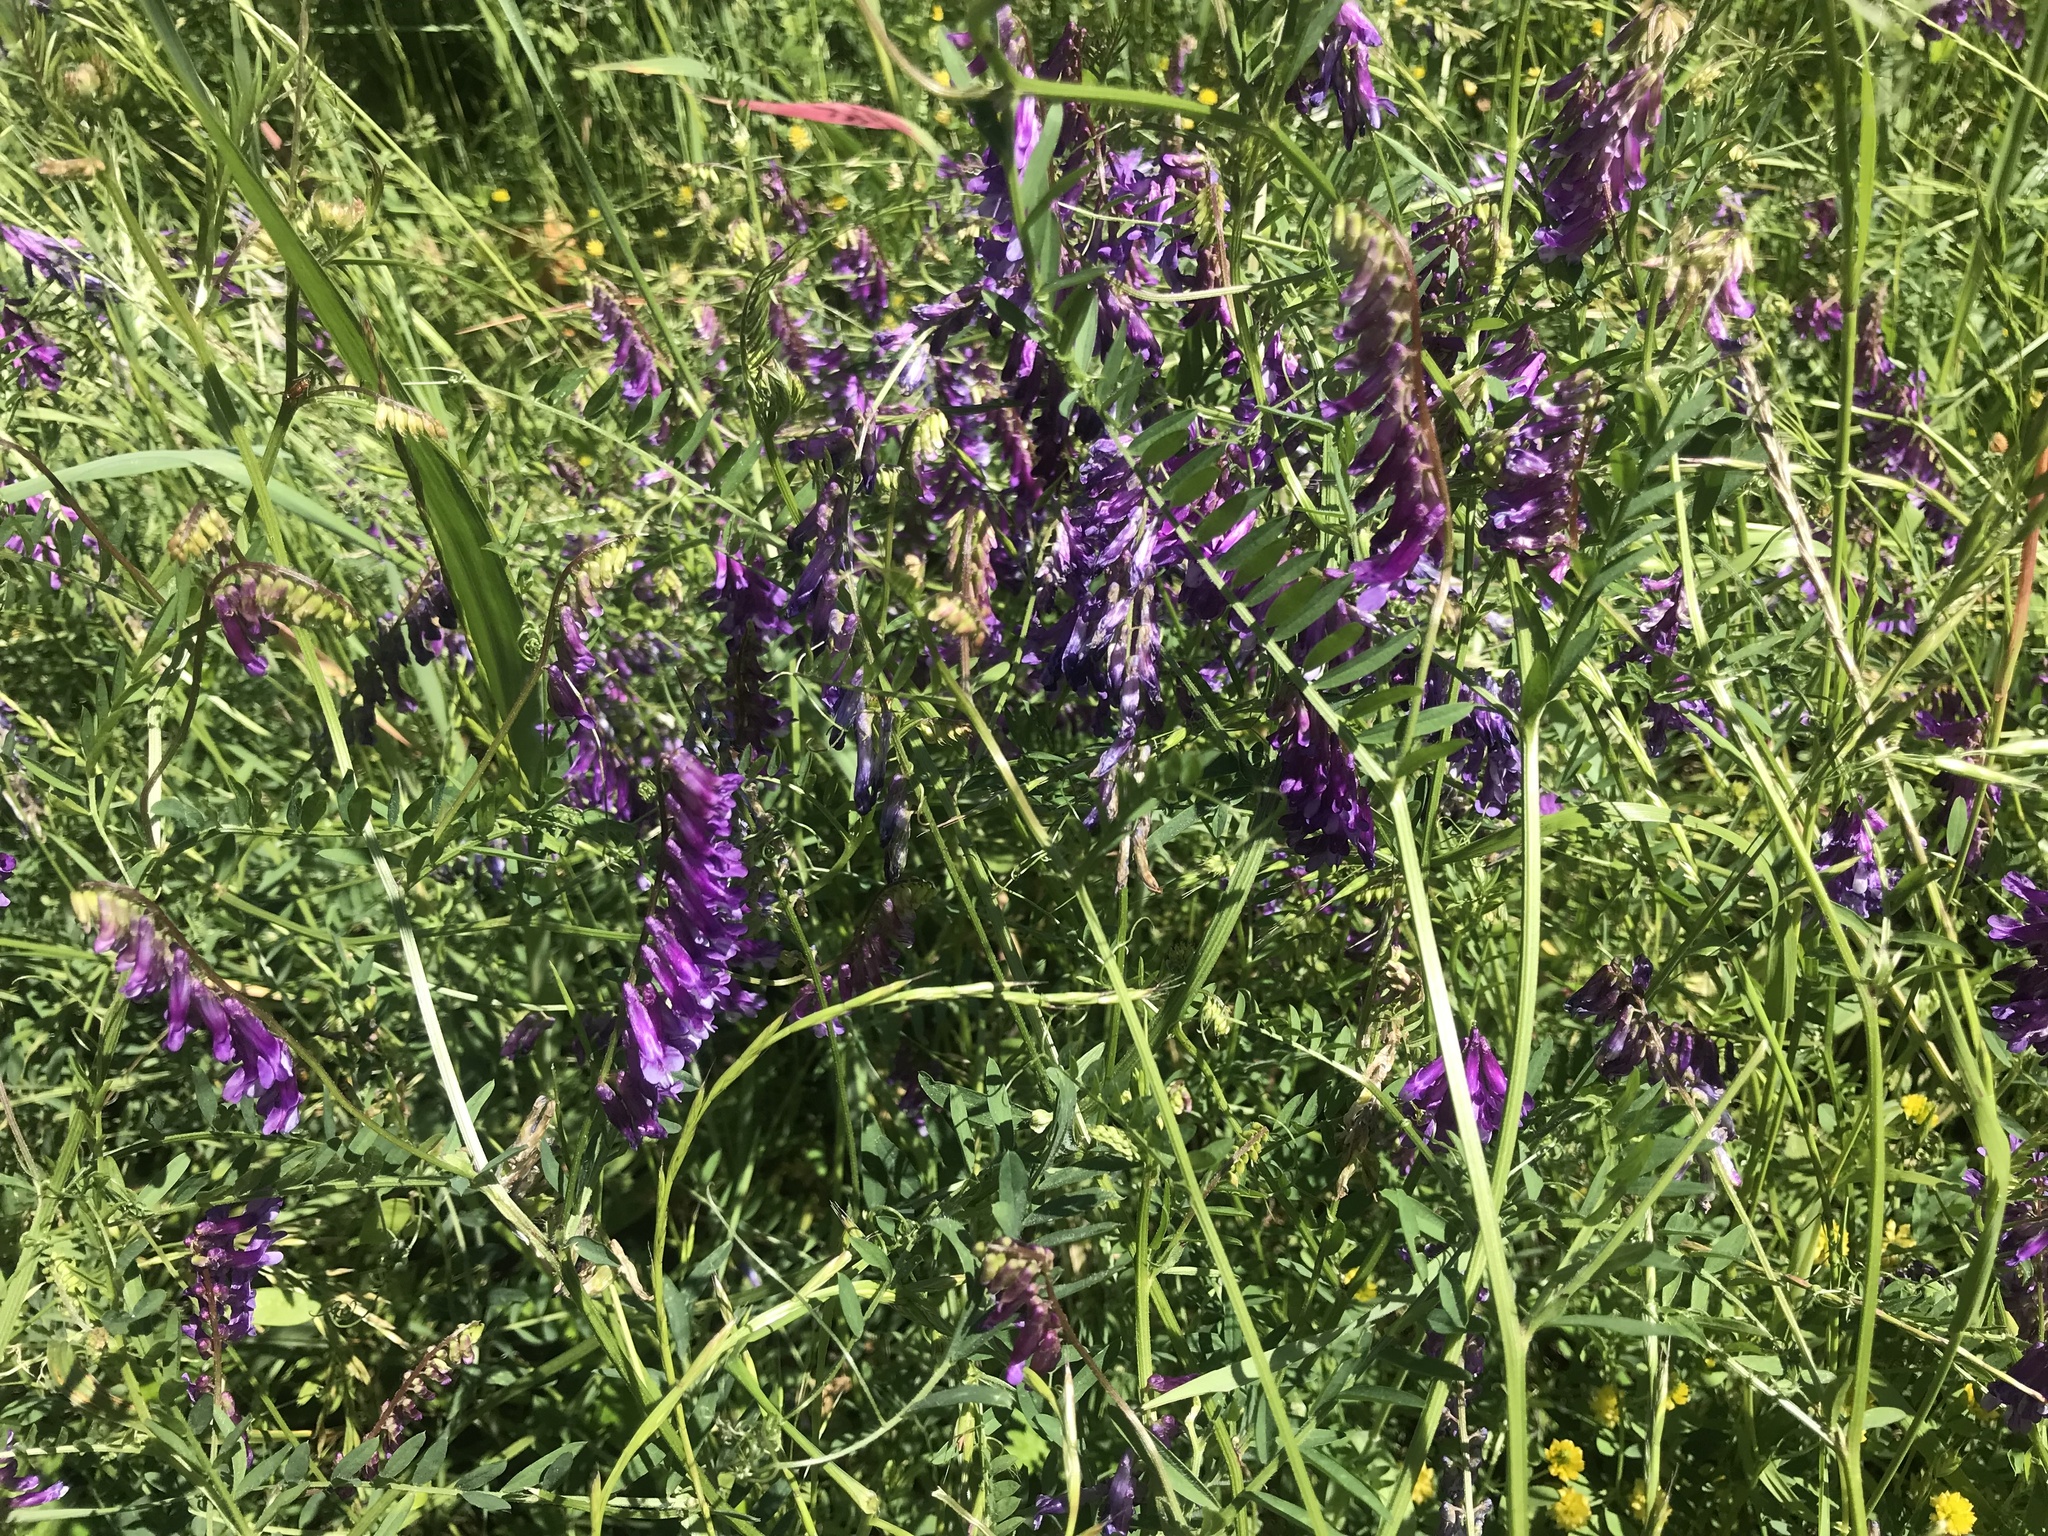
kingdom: Plantae
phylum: Tracheophyta
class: Magnoliopsida
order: Fabales
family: Fabaceae
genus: Vicia
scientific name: Vicia villosa
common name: Fodder vetch
